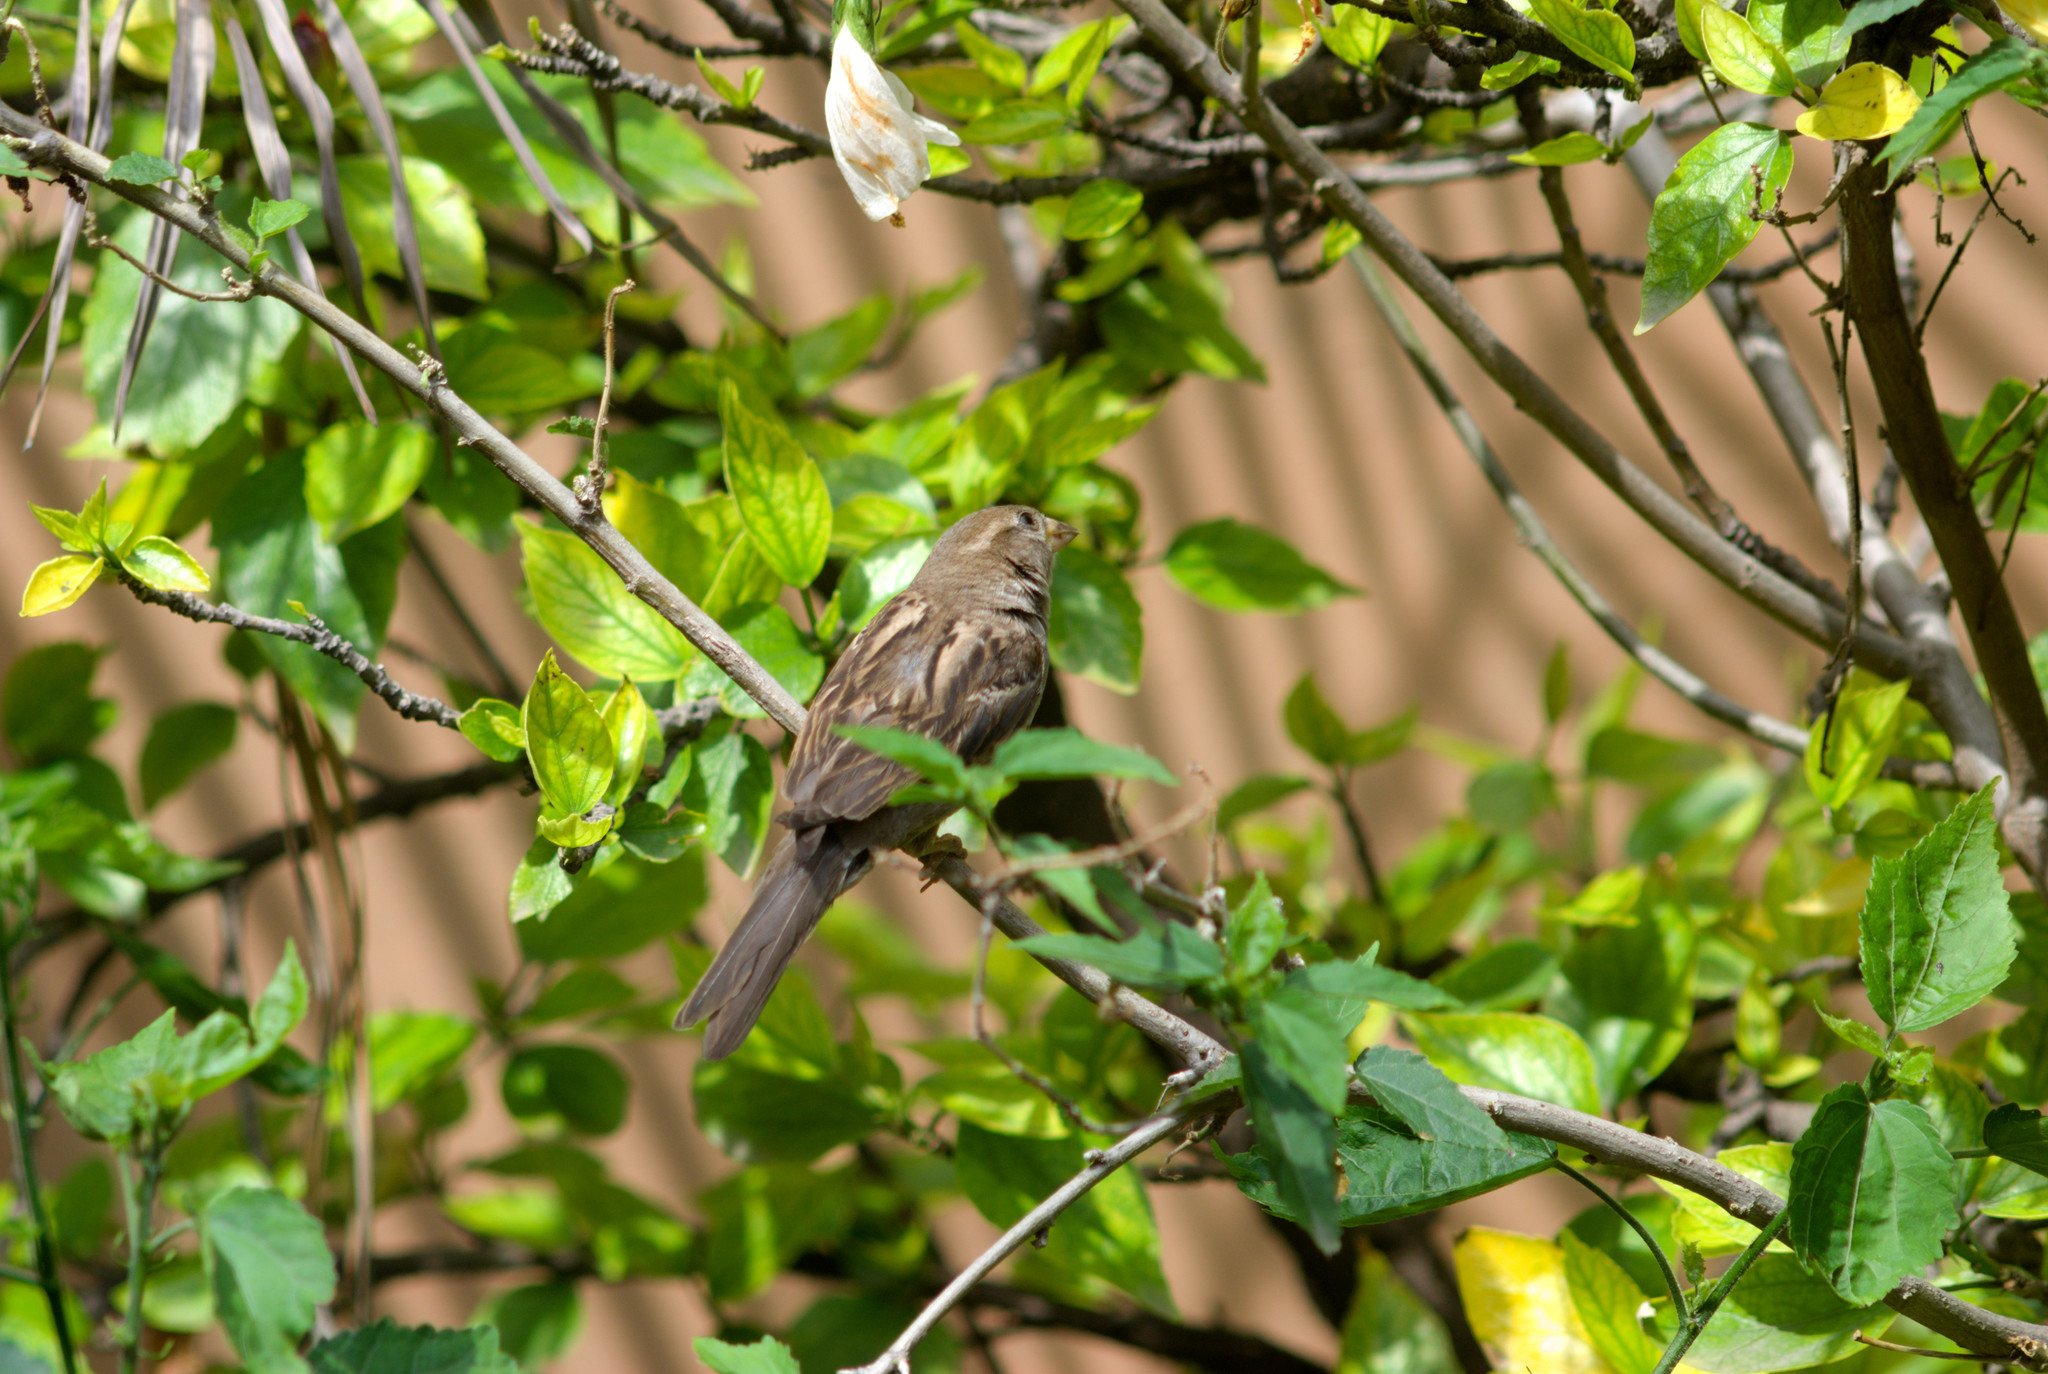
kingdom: Animalia
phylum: Chordata
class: Aves
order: Passeriformes
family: Passeridae
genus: Passer
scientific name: Passer domesticus
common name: House sparrow
